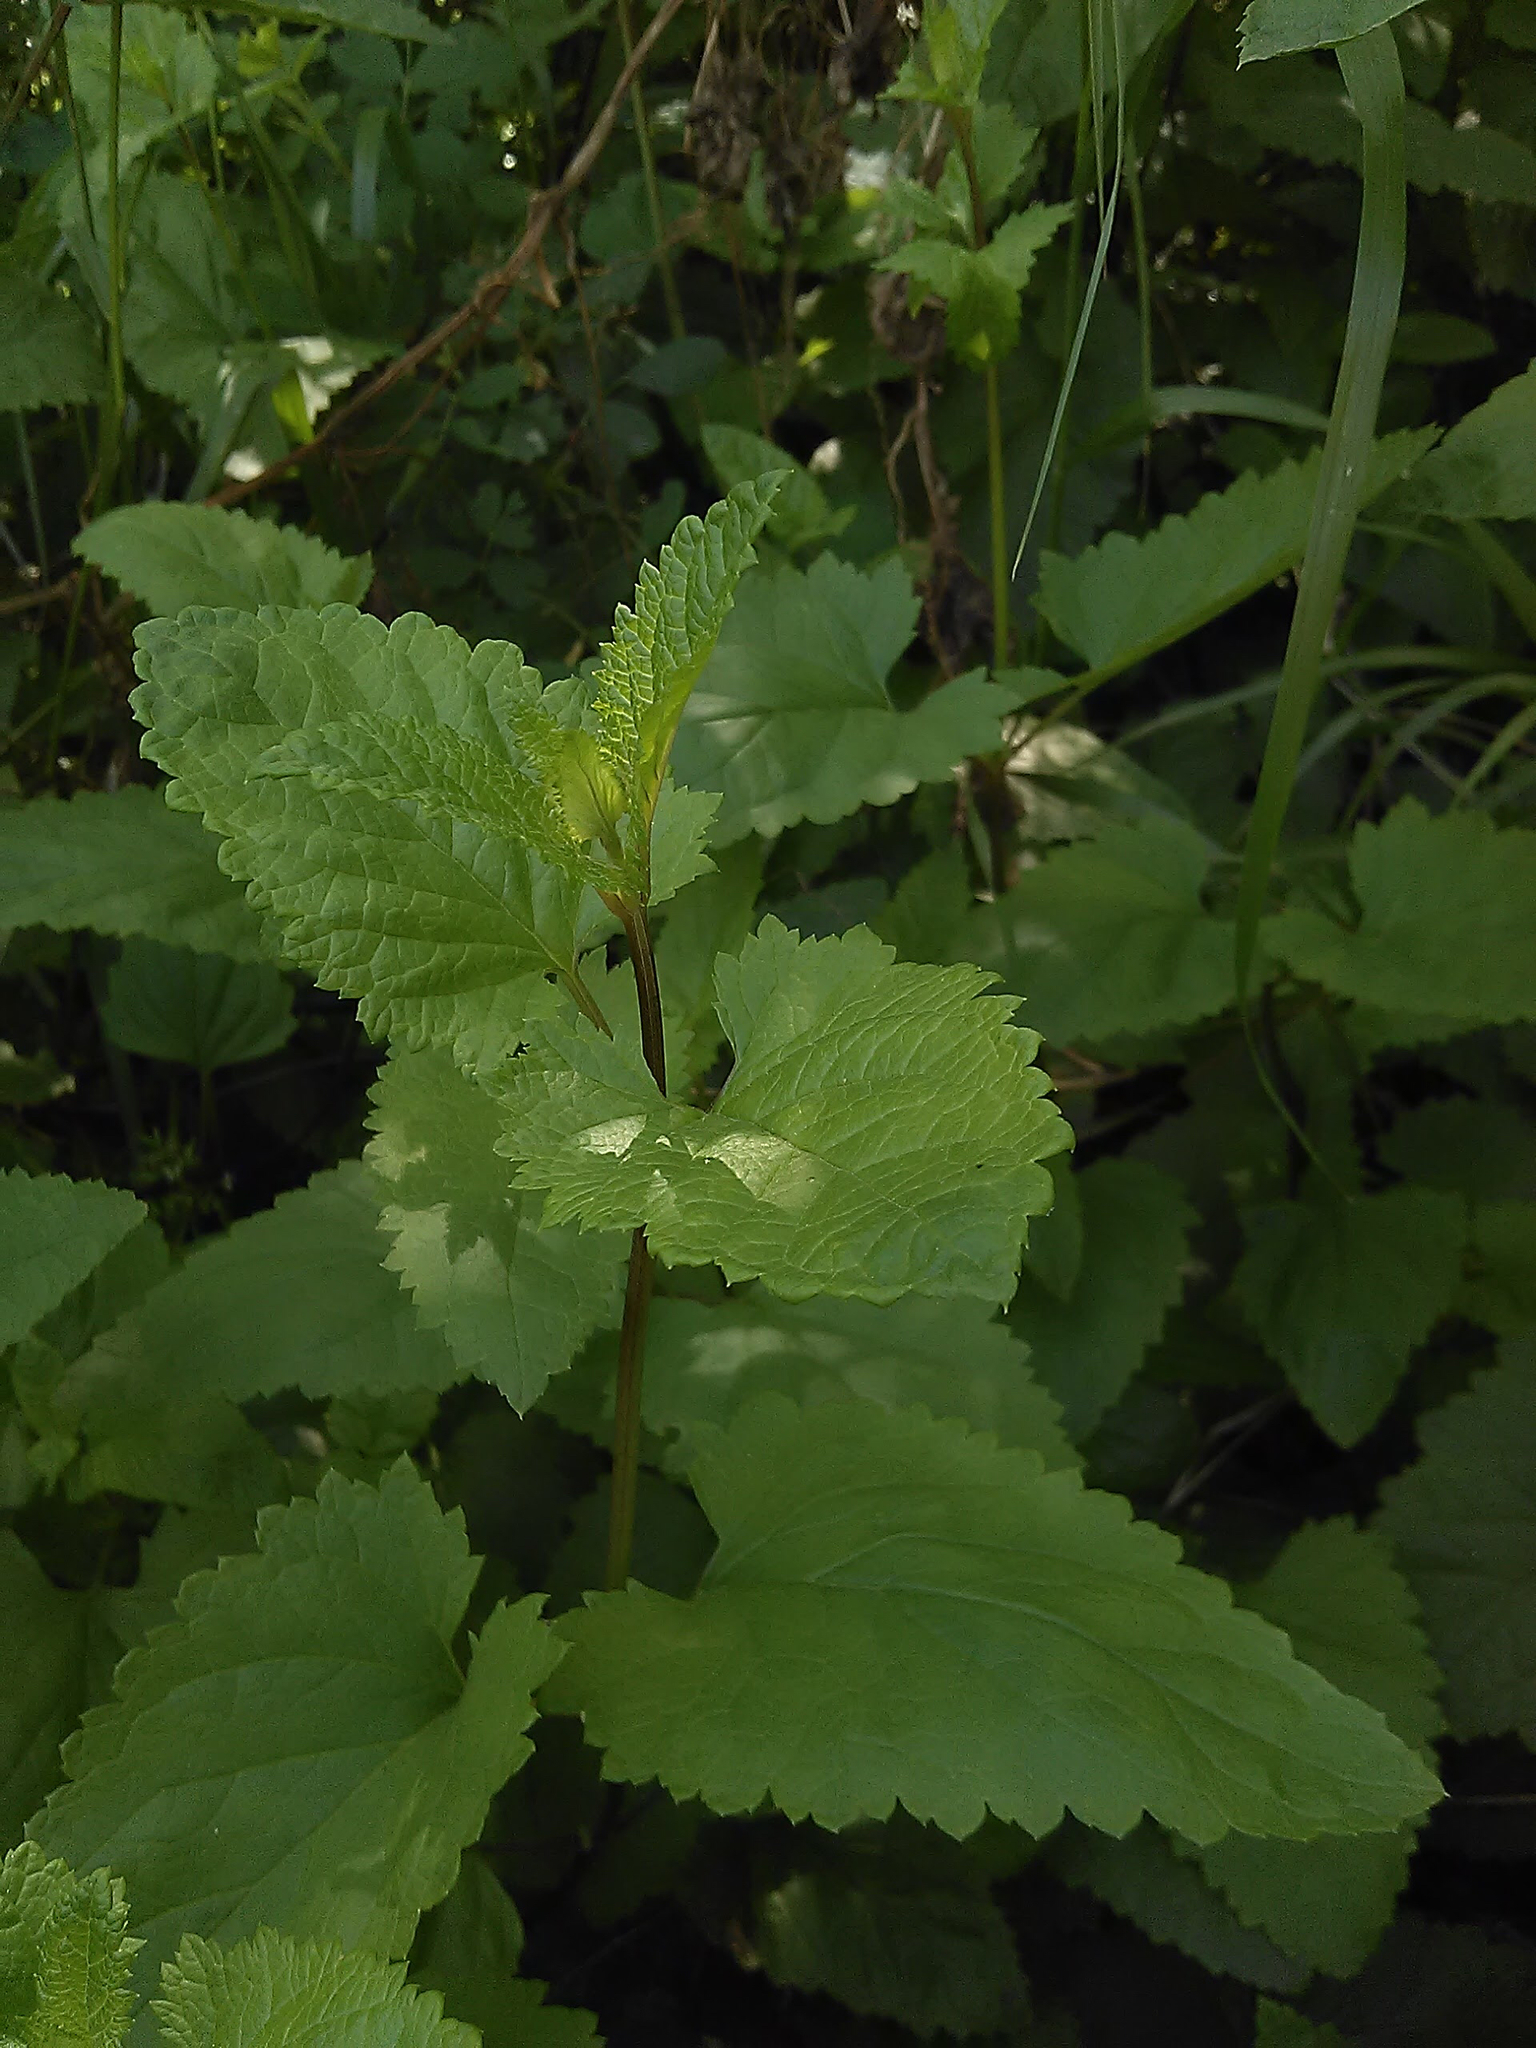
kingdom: Plantae
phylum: Tracheophyta
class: Magnoliopsida
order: Lamiales
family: Scrophulariaceae
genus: Scrophularia
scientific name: Scrophularia californica
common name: California figwort
